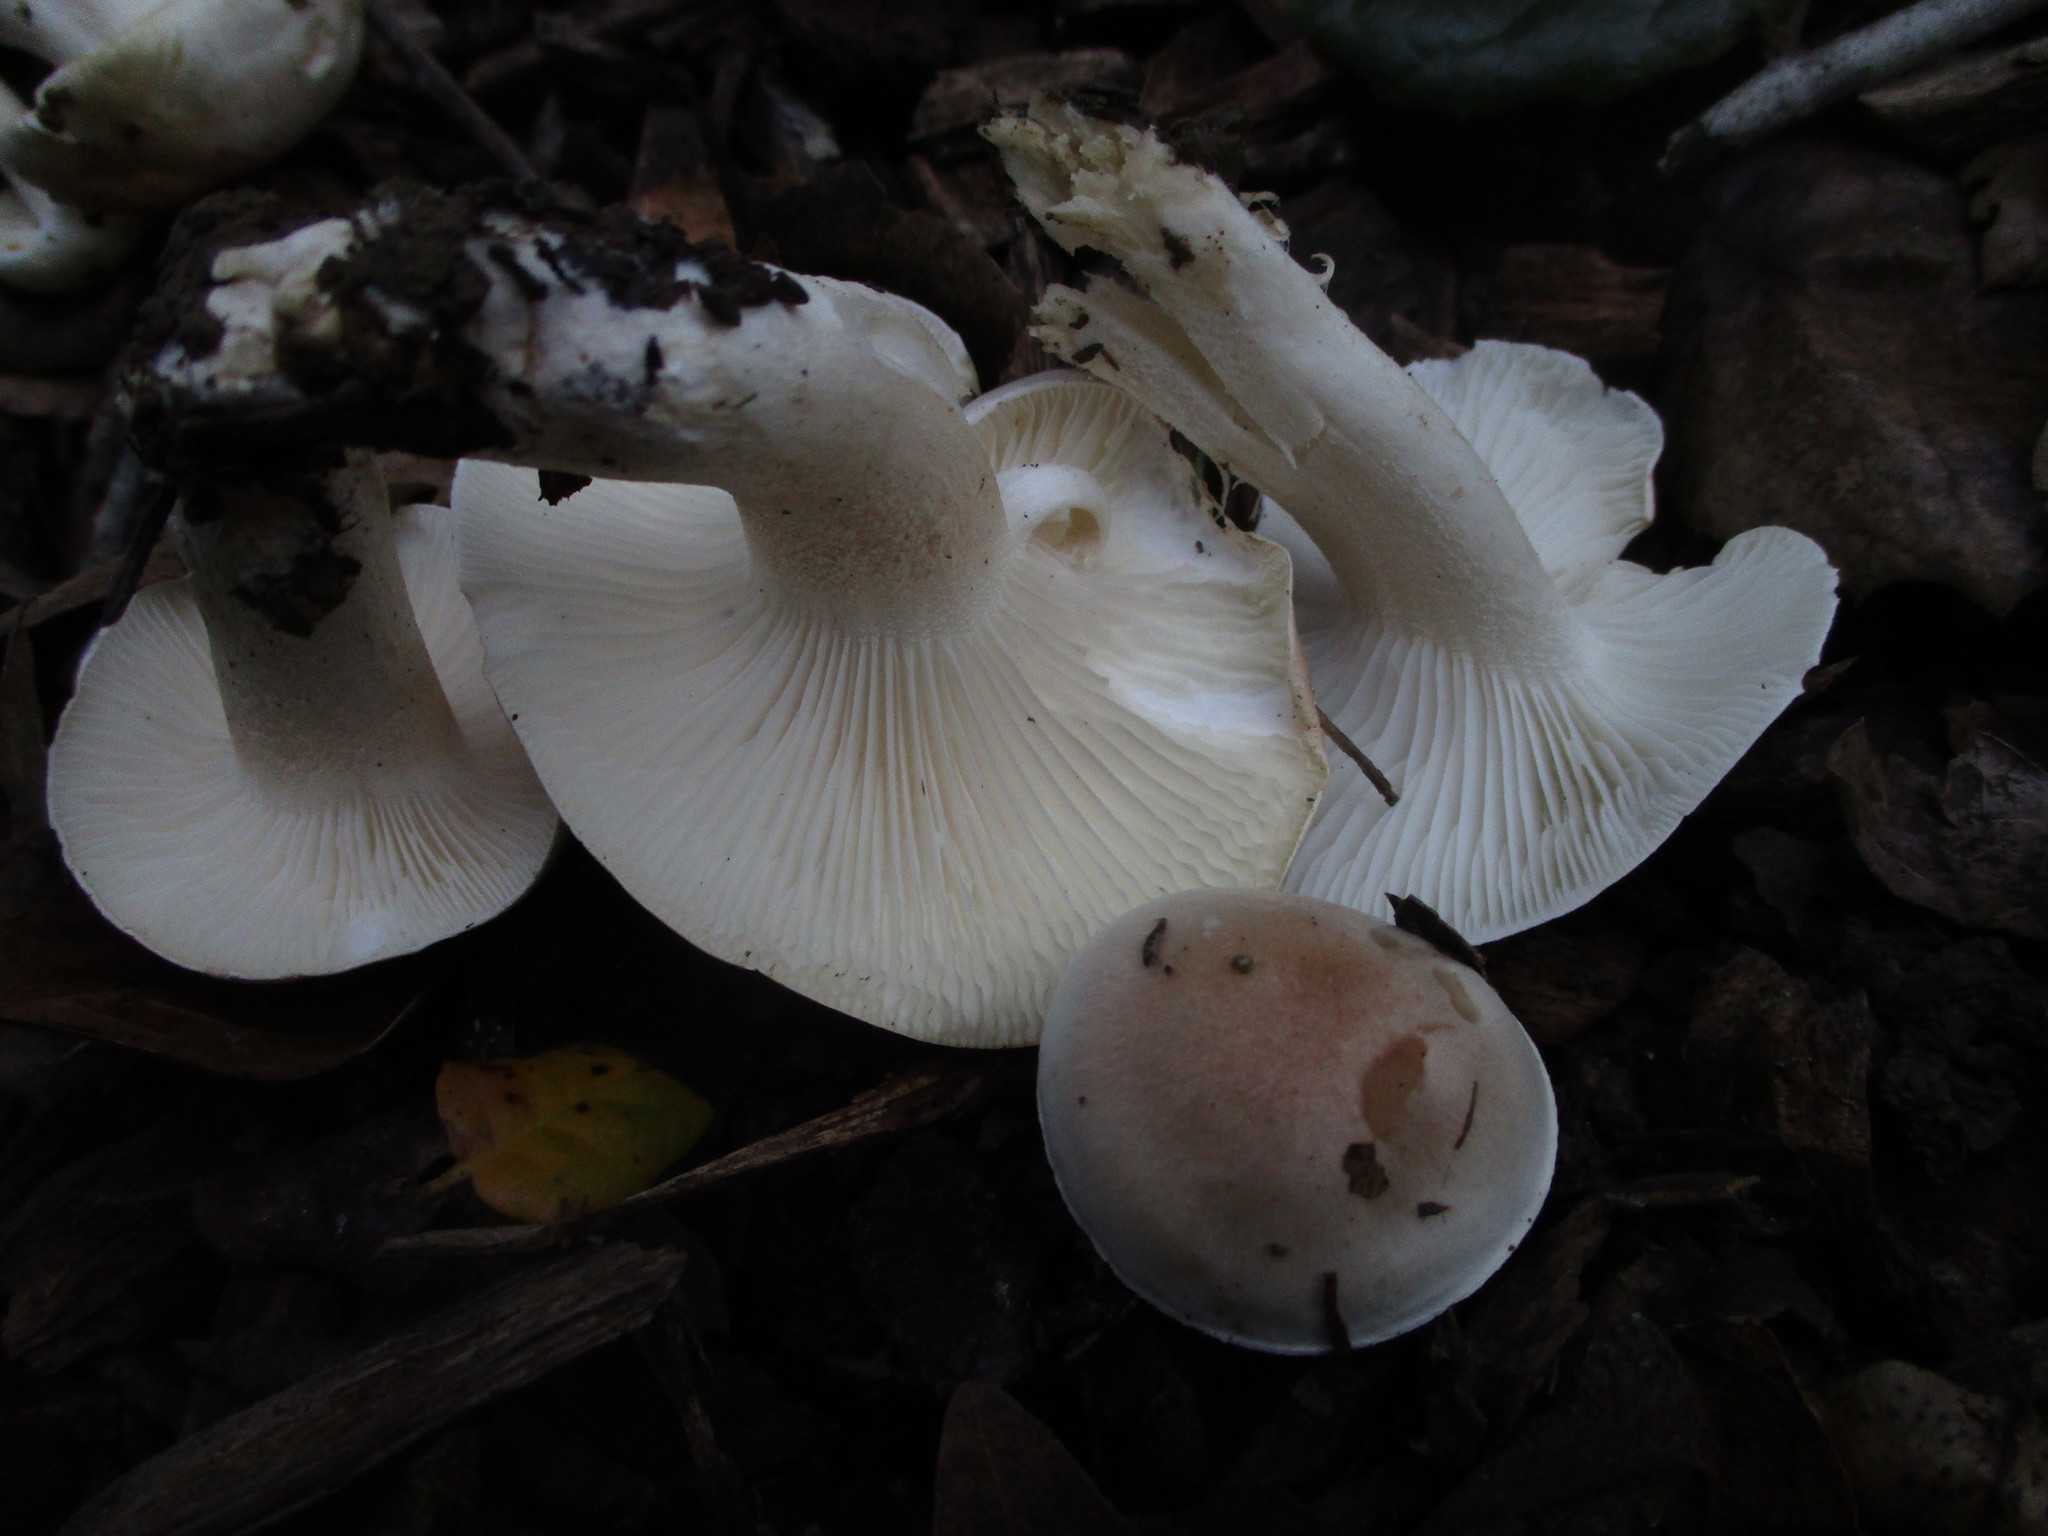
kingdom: Fungi
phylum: Basidiomycota
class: Agaricomycetes
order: Agaricales
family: Hygrophoraceae
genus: Hygrophorus
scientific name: Hygrophorus roseobrunneus
